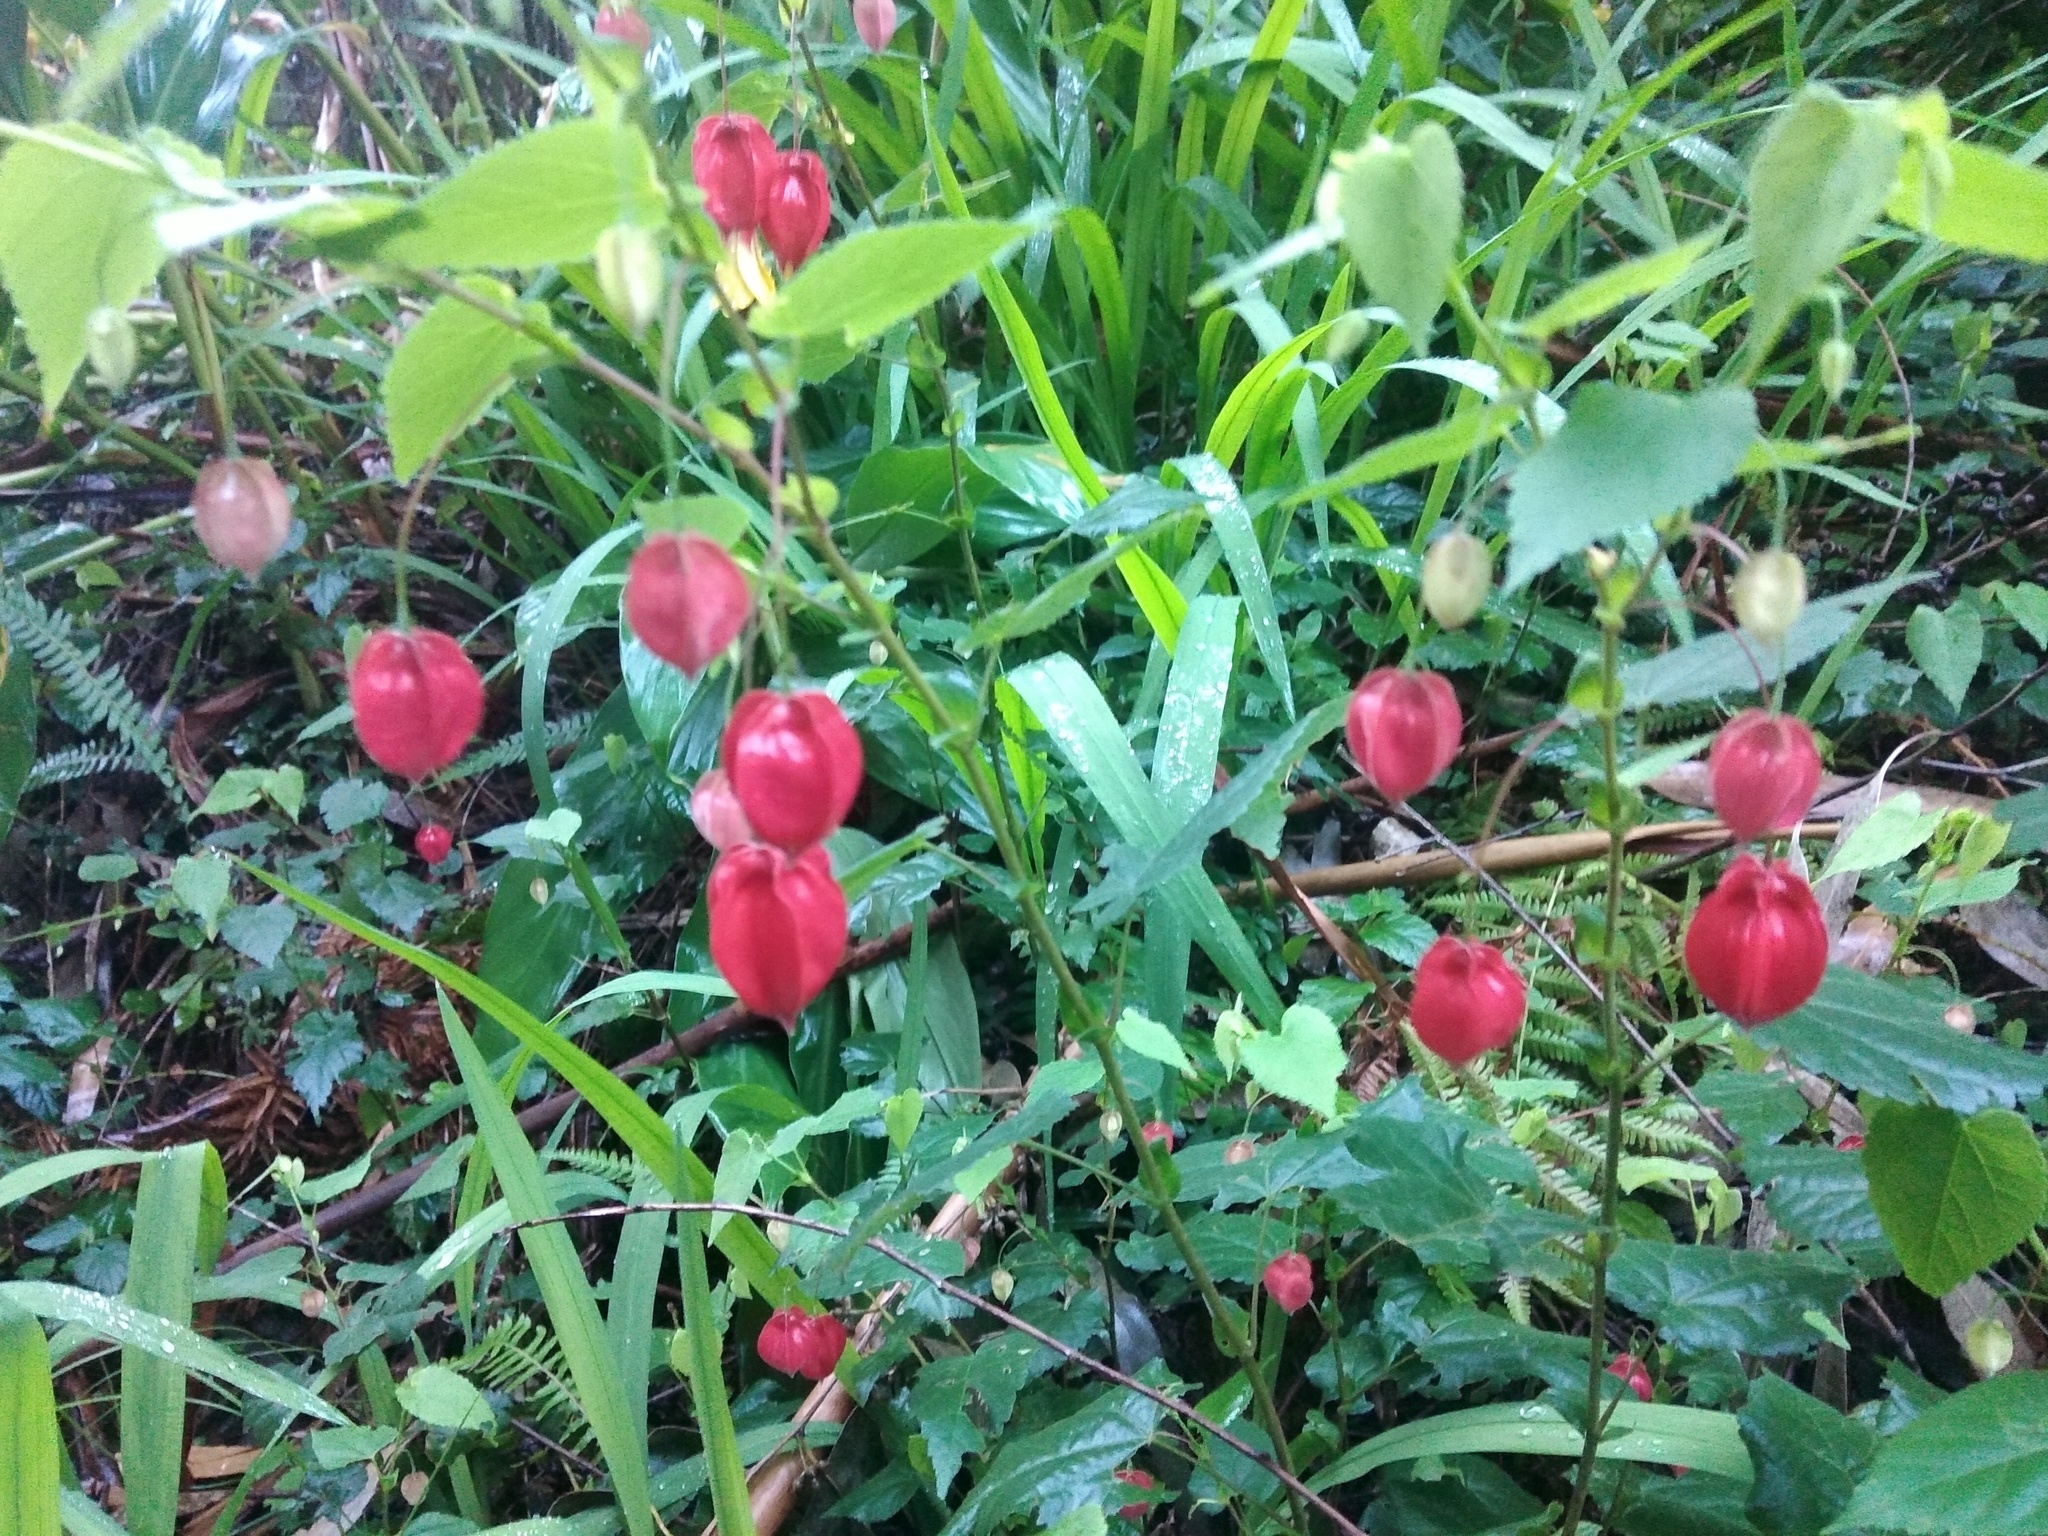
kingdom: Plantae
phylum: Tracheophyta
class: Magnoliopsida
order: Malvales
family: Malvaceae
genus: Callianthe
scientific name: Callianthe megapotamica
